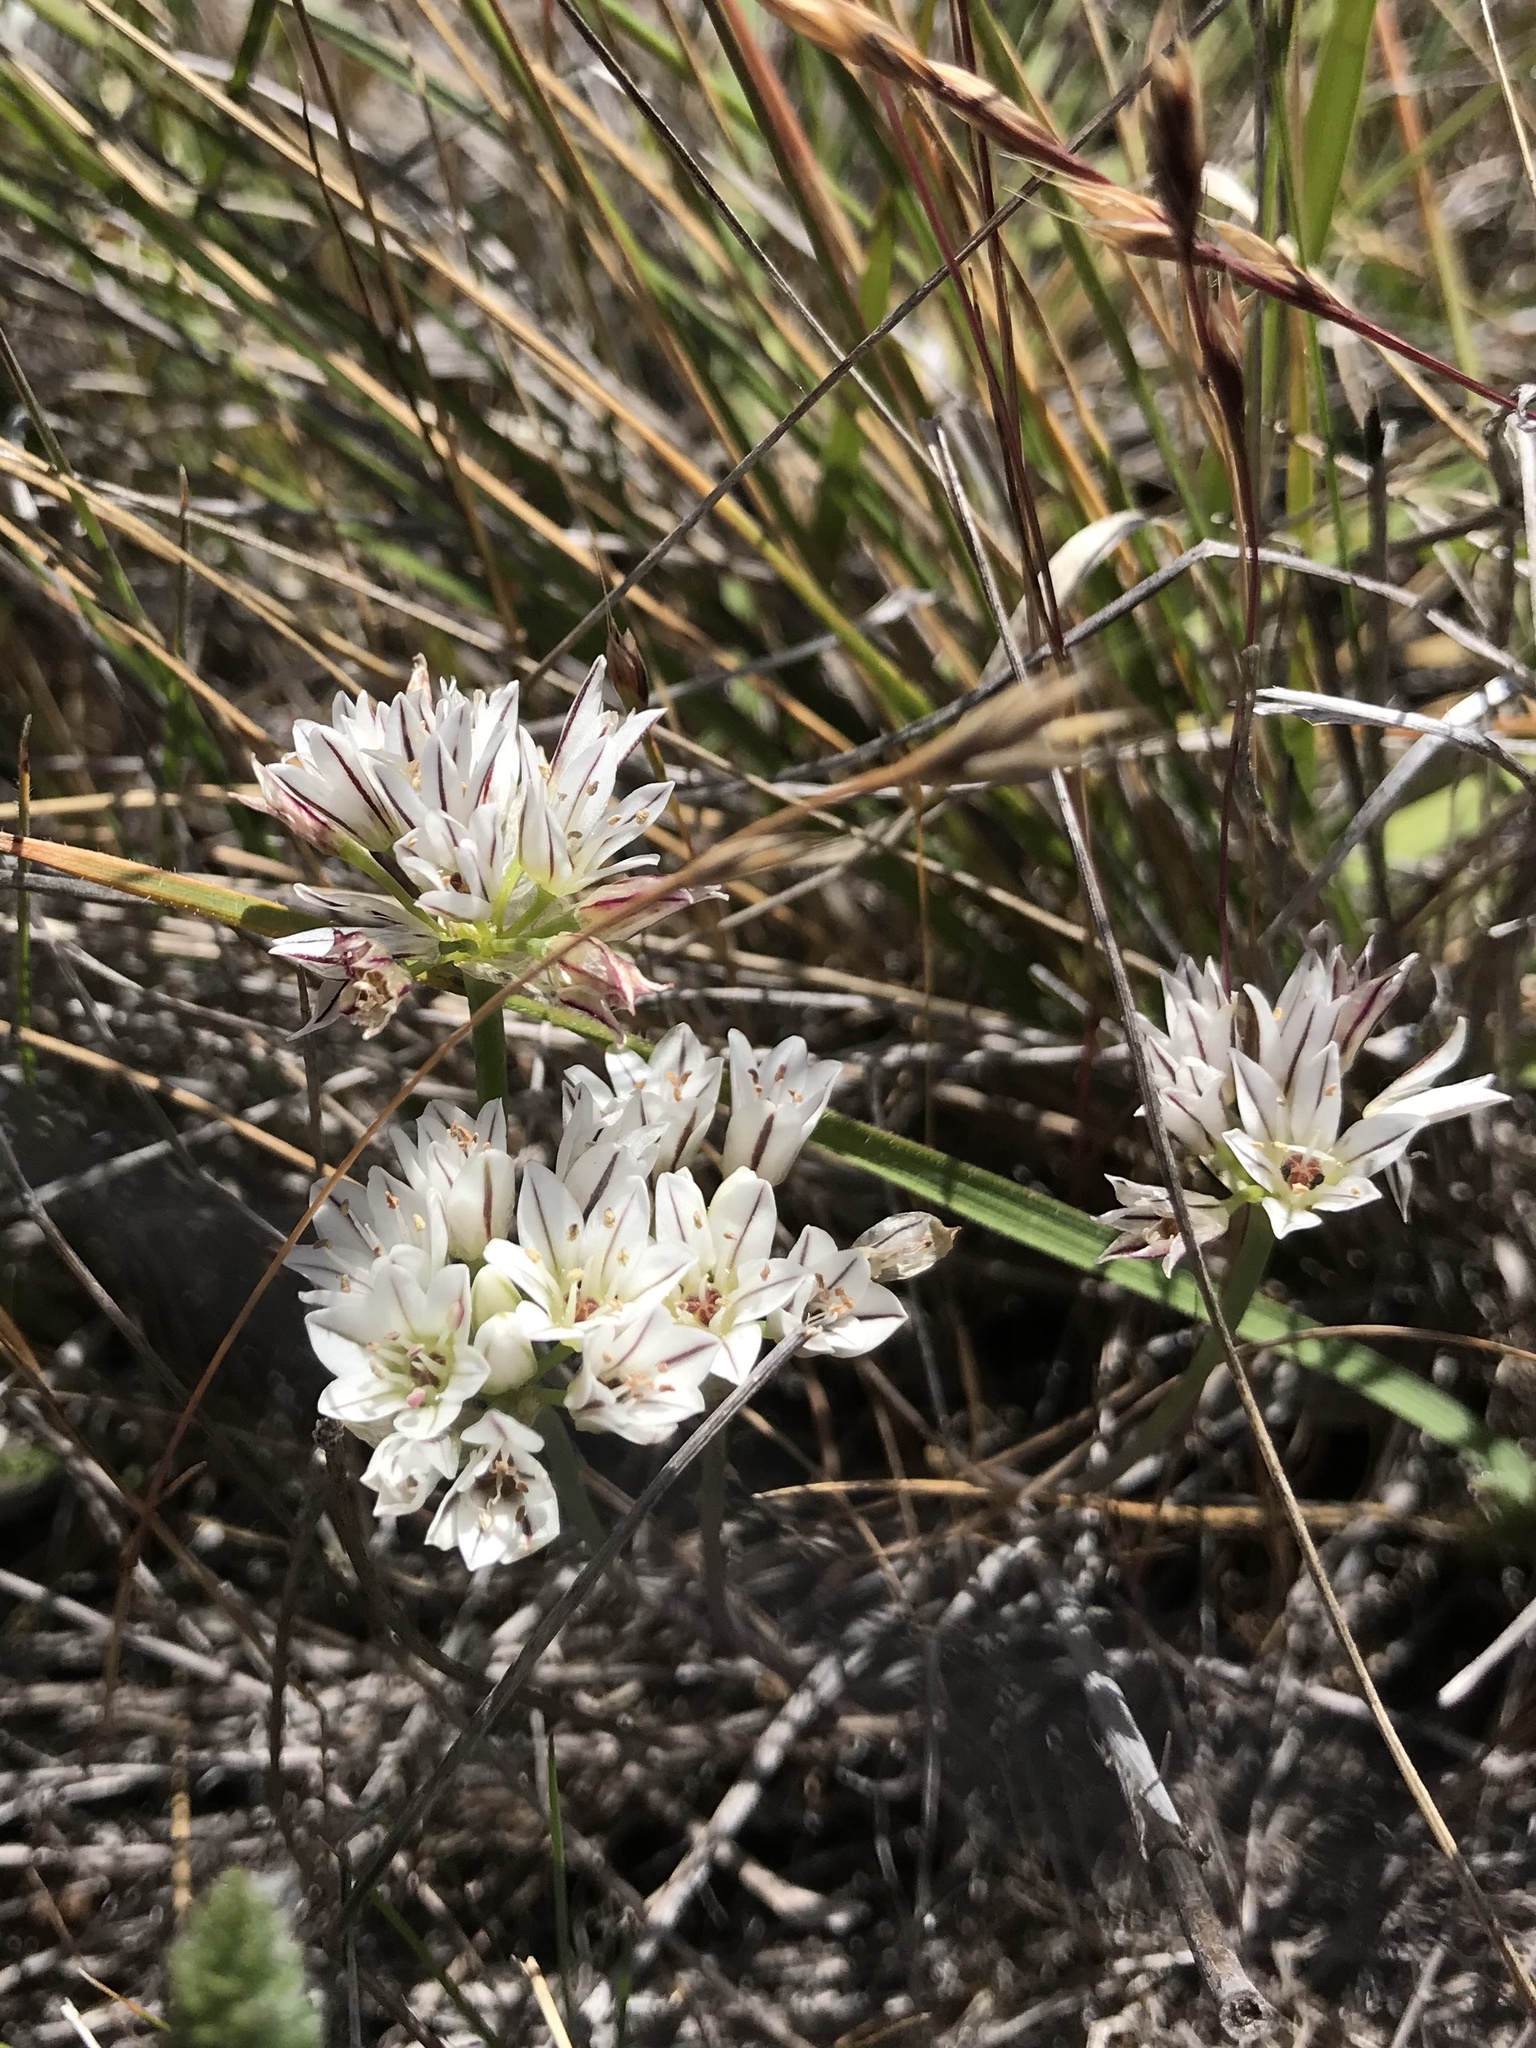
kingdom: Plantae
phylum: Tracheophyta
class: Liliopsida
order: Asparagales
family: Amaryllidaceae
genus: Allium
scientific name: Allium lacunosum
